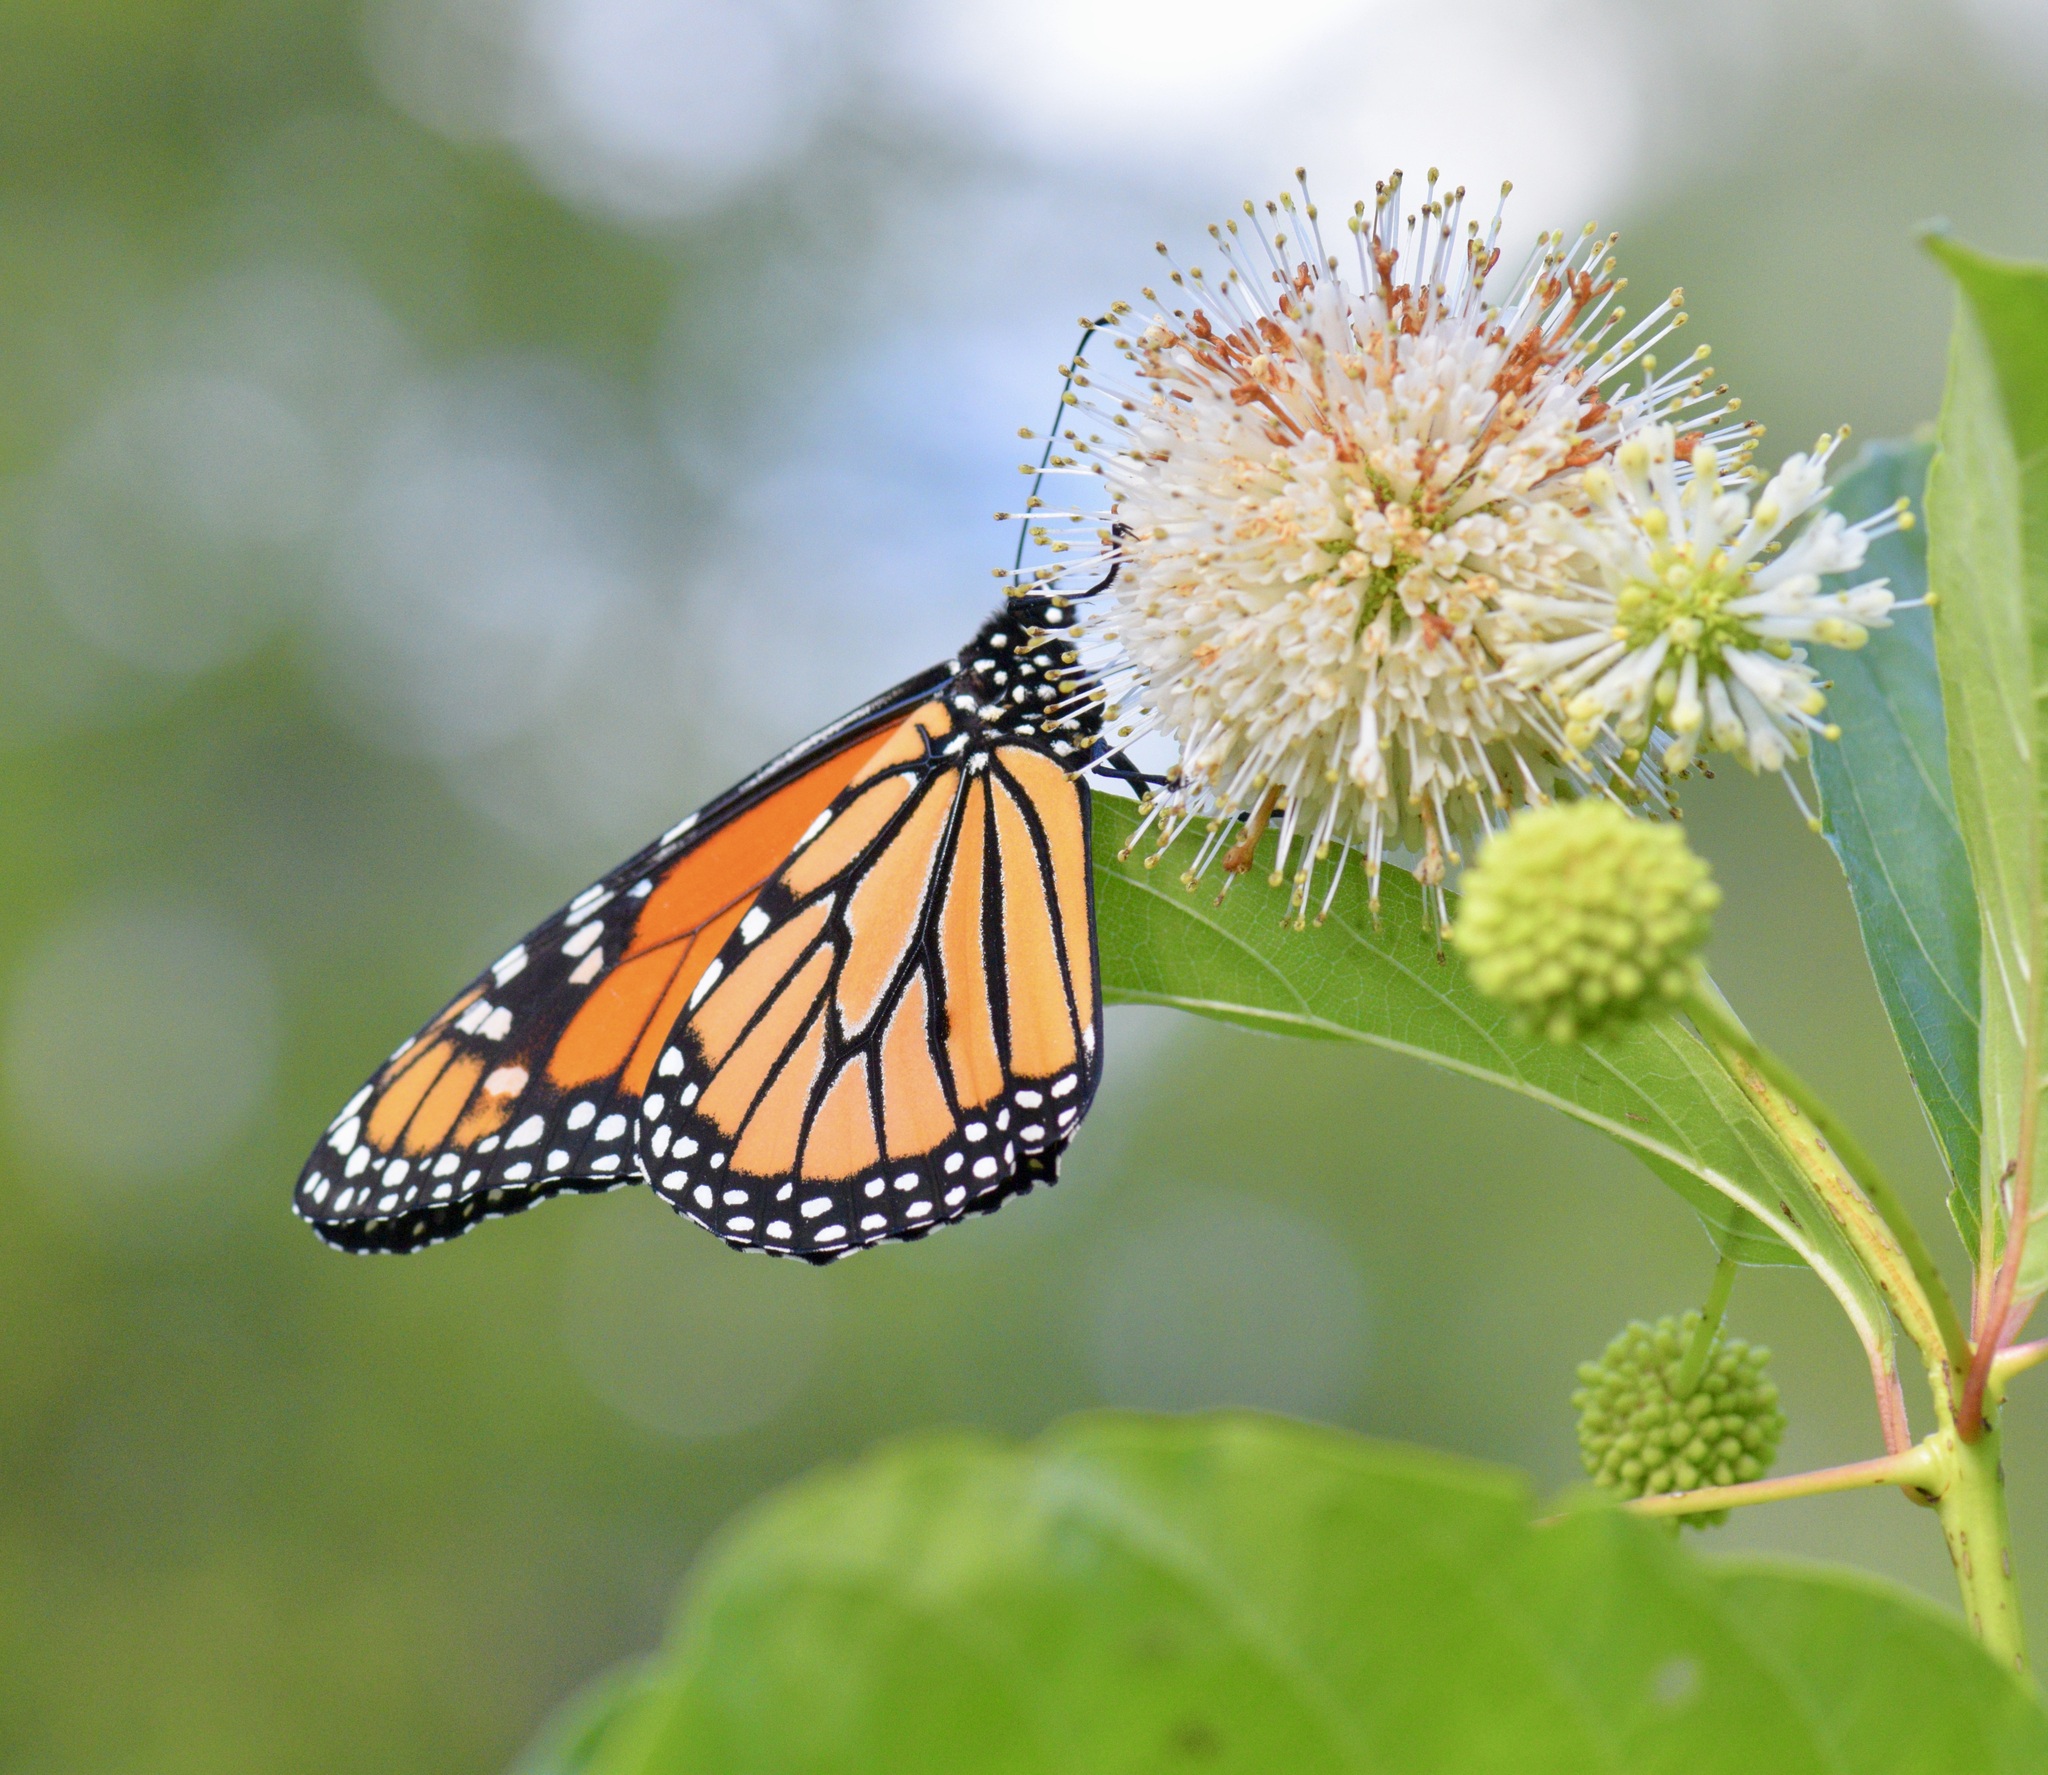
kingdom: Animalia
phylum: Arthropoda
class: Insecta
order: Lepidoptera
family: Nymphalidae
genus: Danaus
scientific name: Danaus plexippus
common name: Monarch
